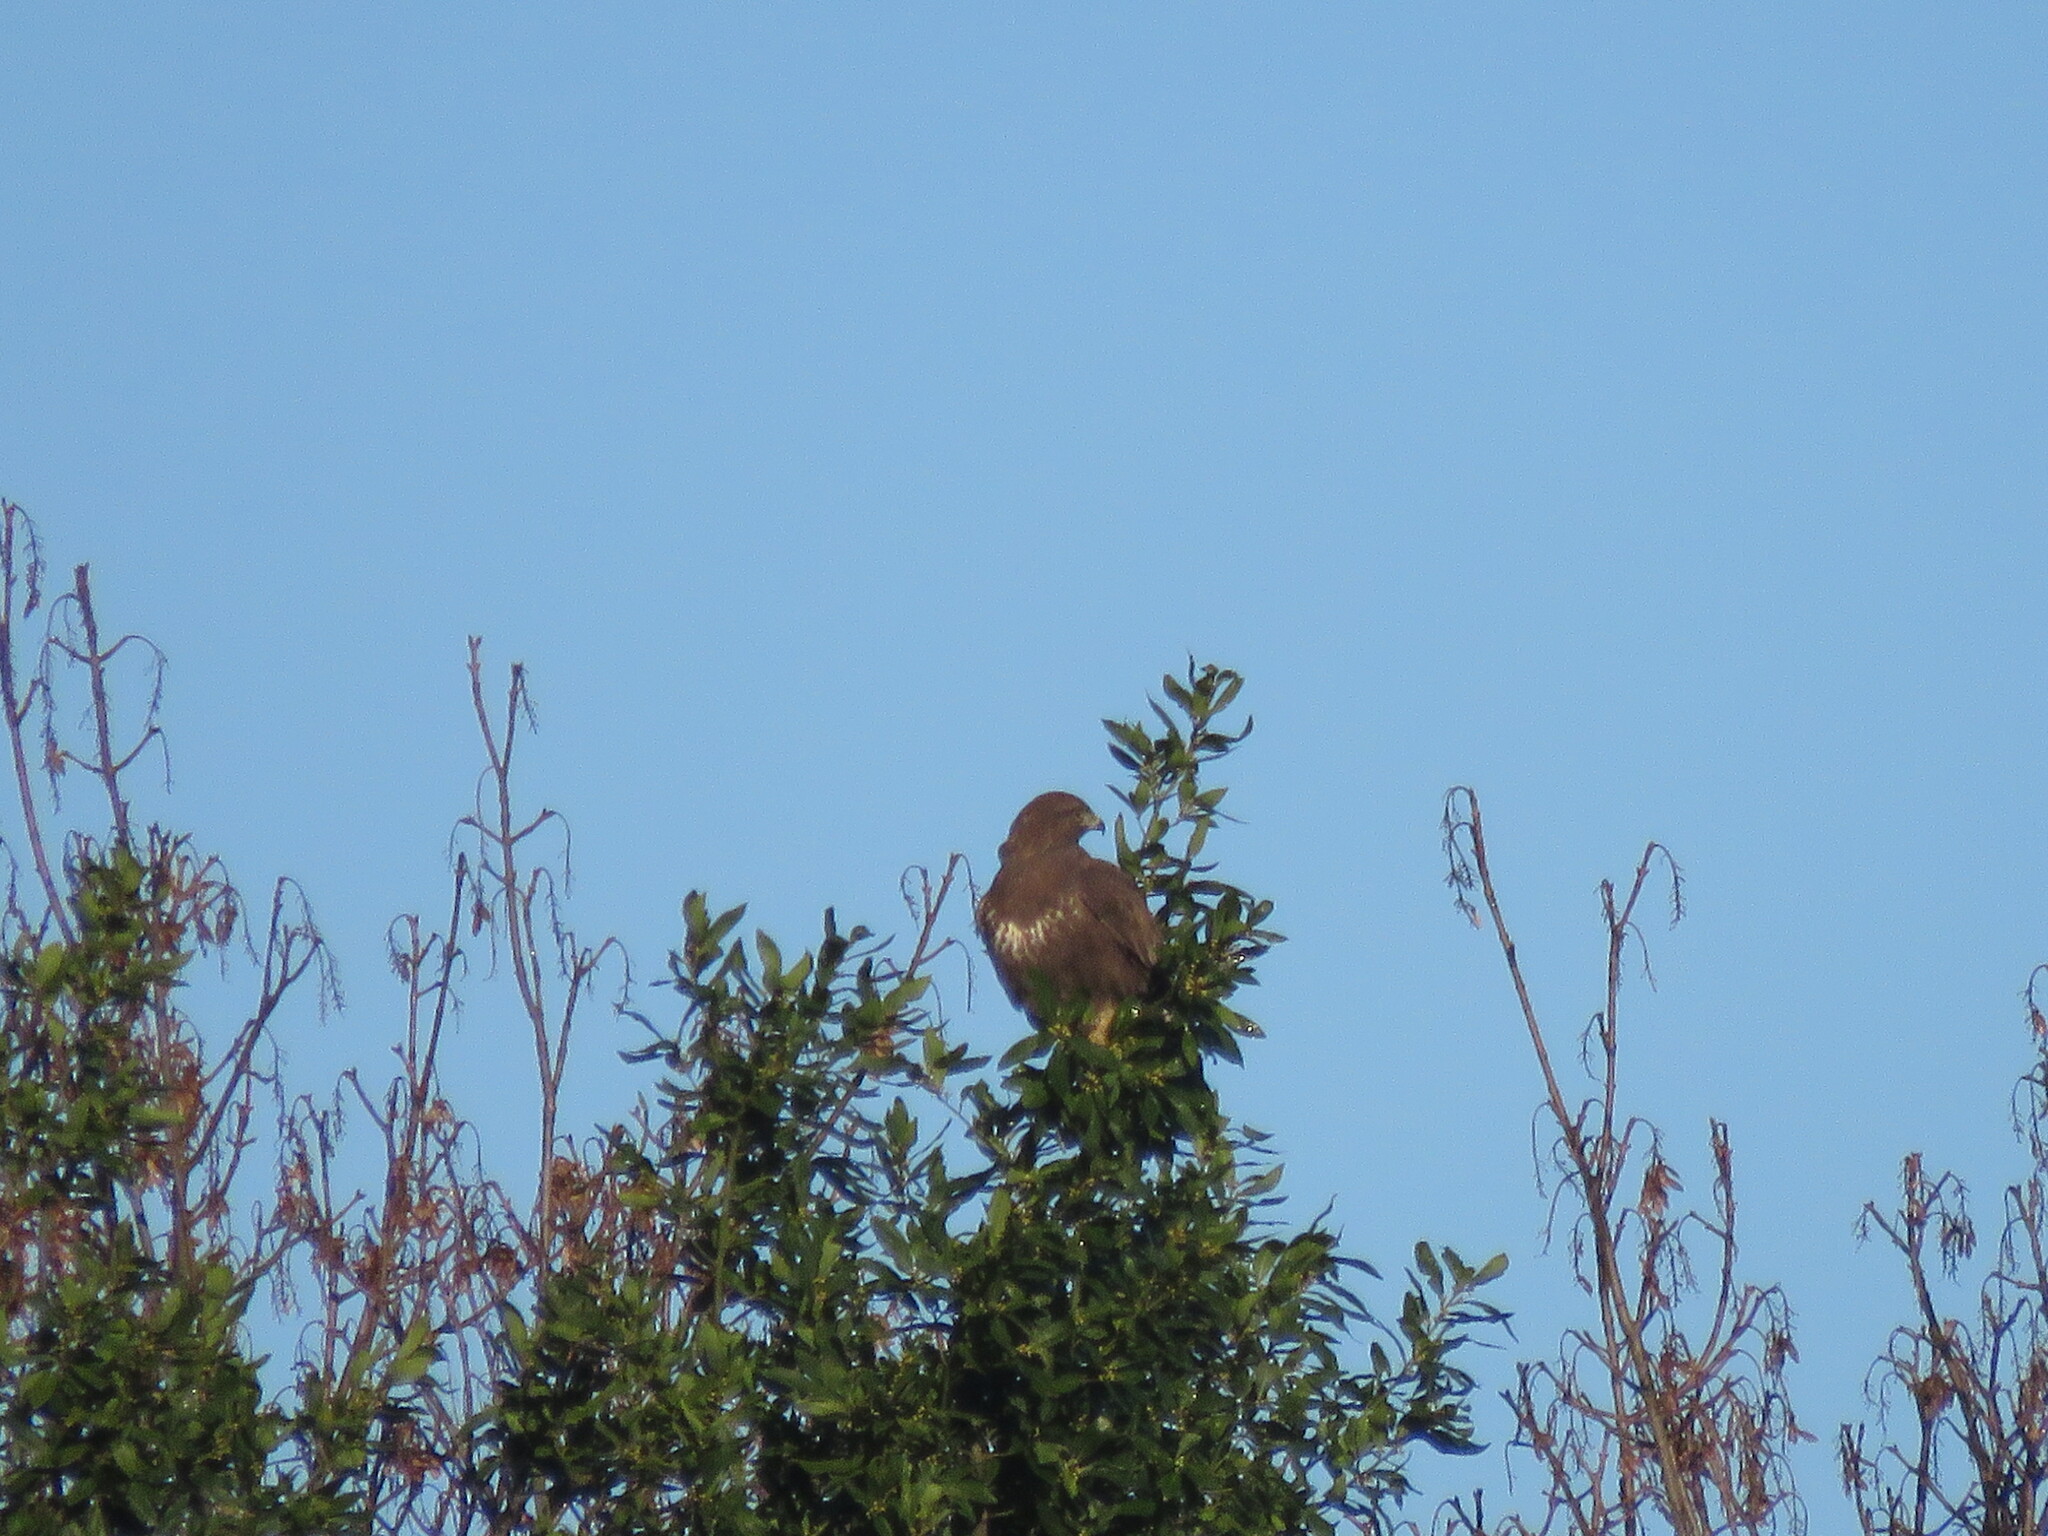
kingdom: Animalia
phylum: Chordata
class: Aves
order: Accipitriformes
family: Accipitridae
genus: Buteo
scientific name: Buteo buteo
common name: Common buzzard
